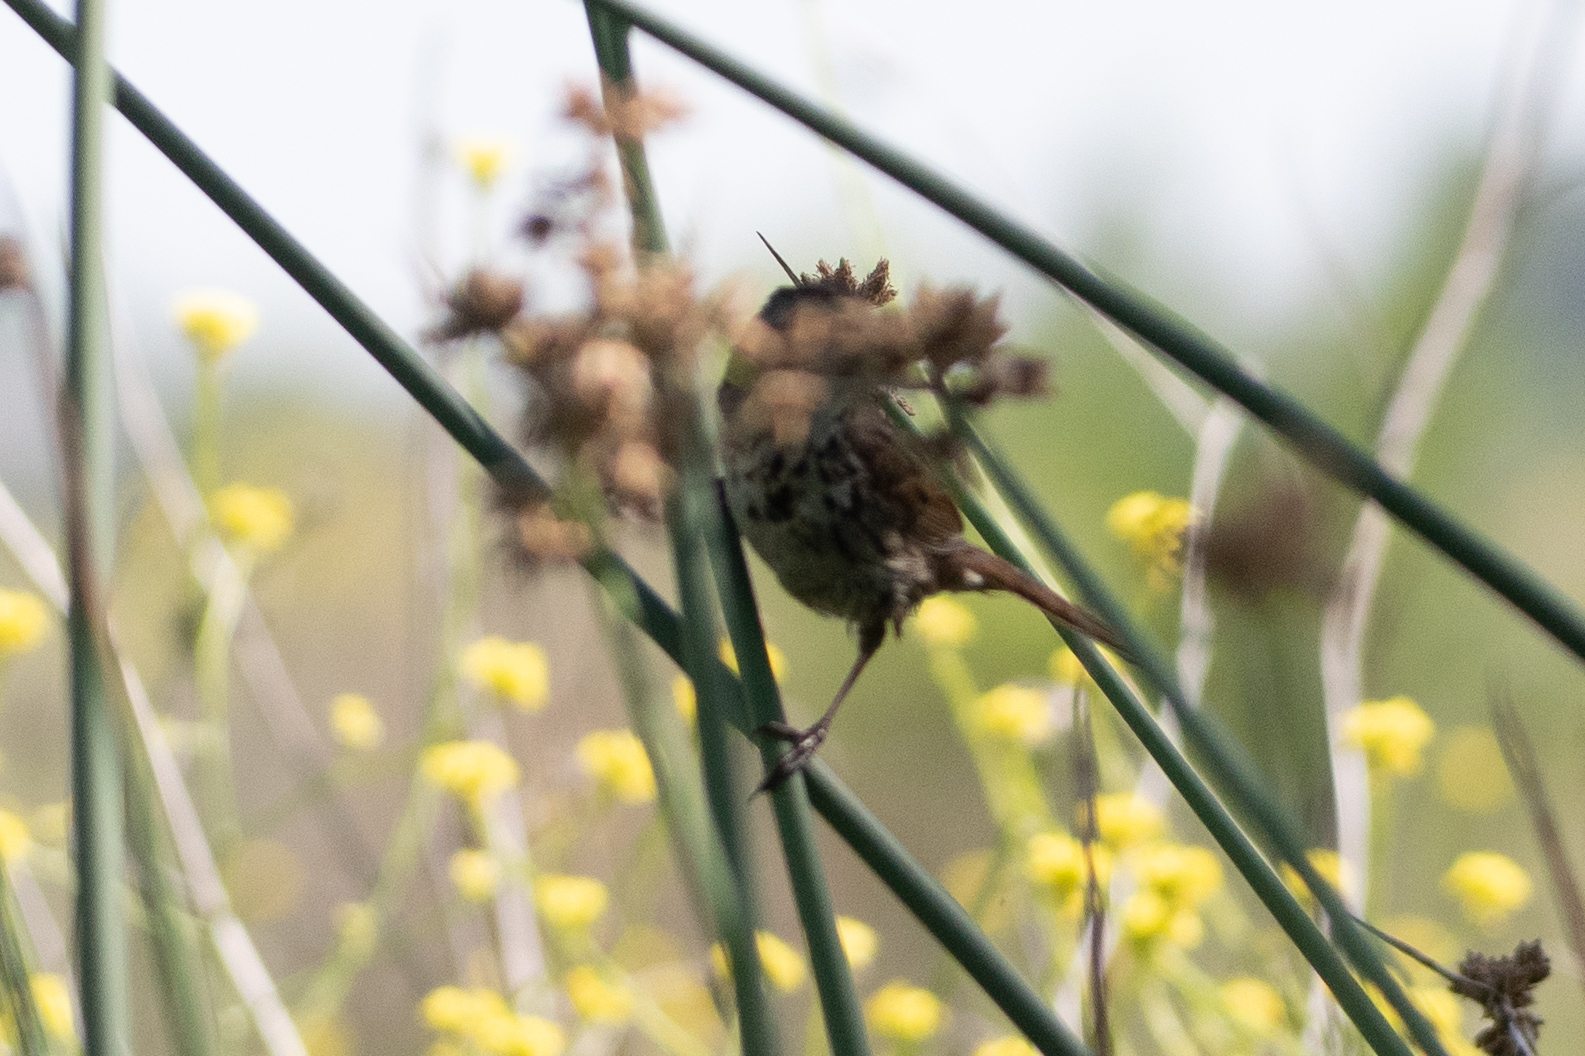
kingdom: Animalia
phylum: Chordata
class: Aves
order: Passeriformes
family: Passerellidae
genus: Melospiza
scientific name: Melospiza melodia
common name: Song sparrow
